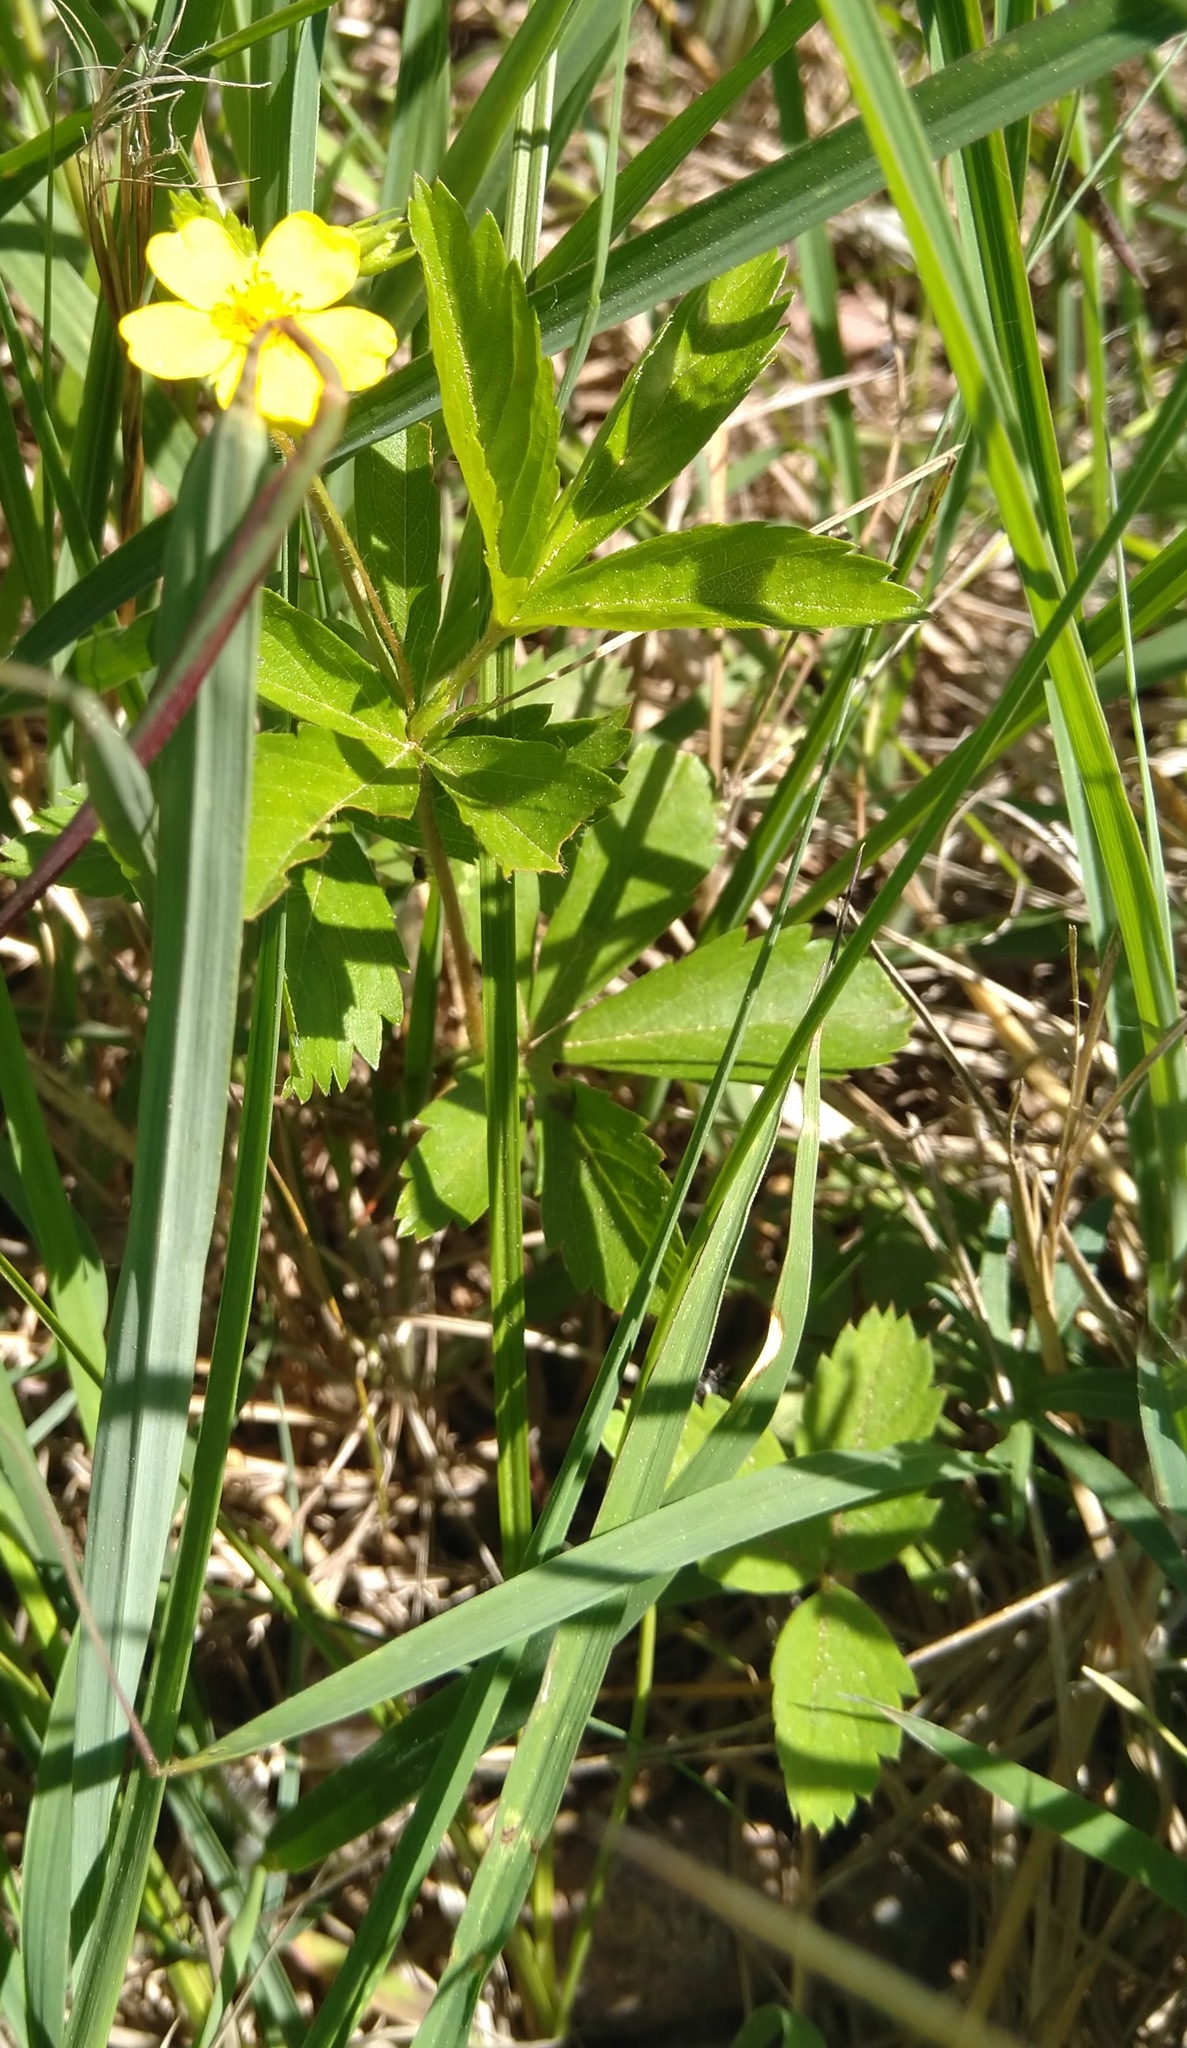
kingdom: Plantae
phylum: Tracheophyta
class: Magnoliopsida
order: Rosales
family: Rosaceae
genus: Potentilla
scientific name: Potentilla simplex
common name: Old field cinquefoil
